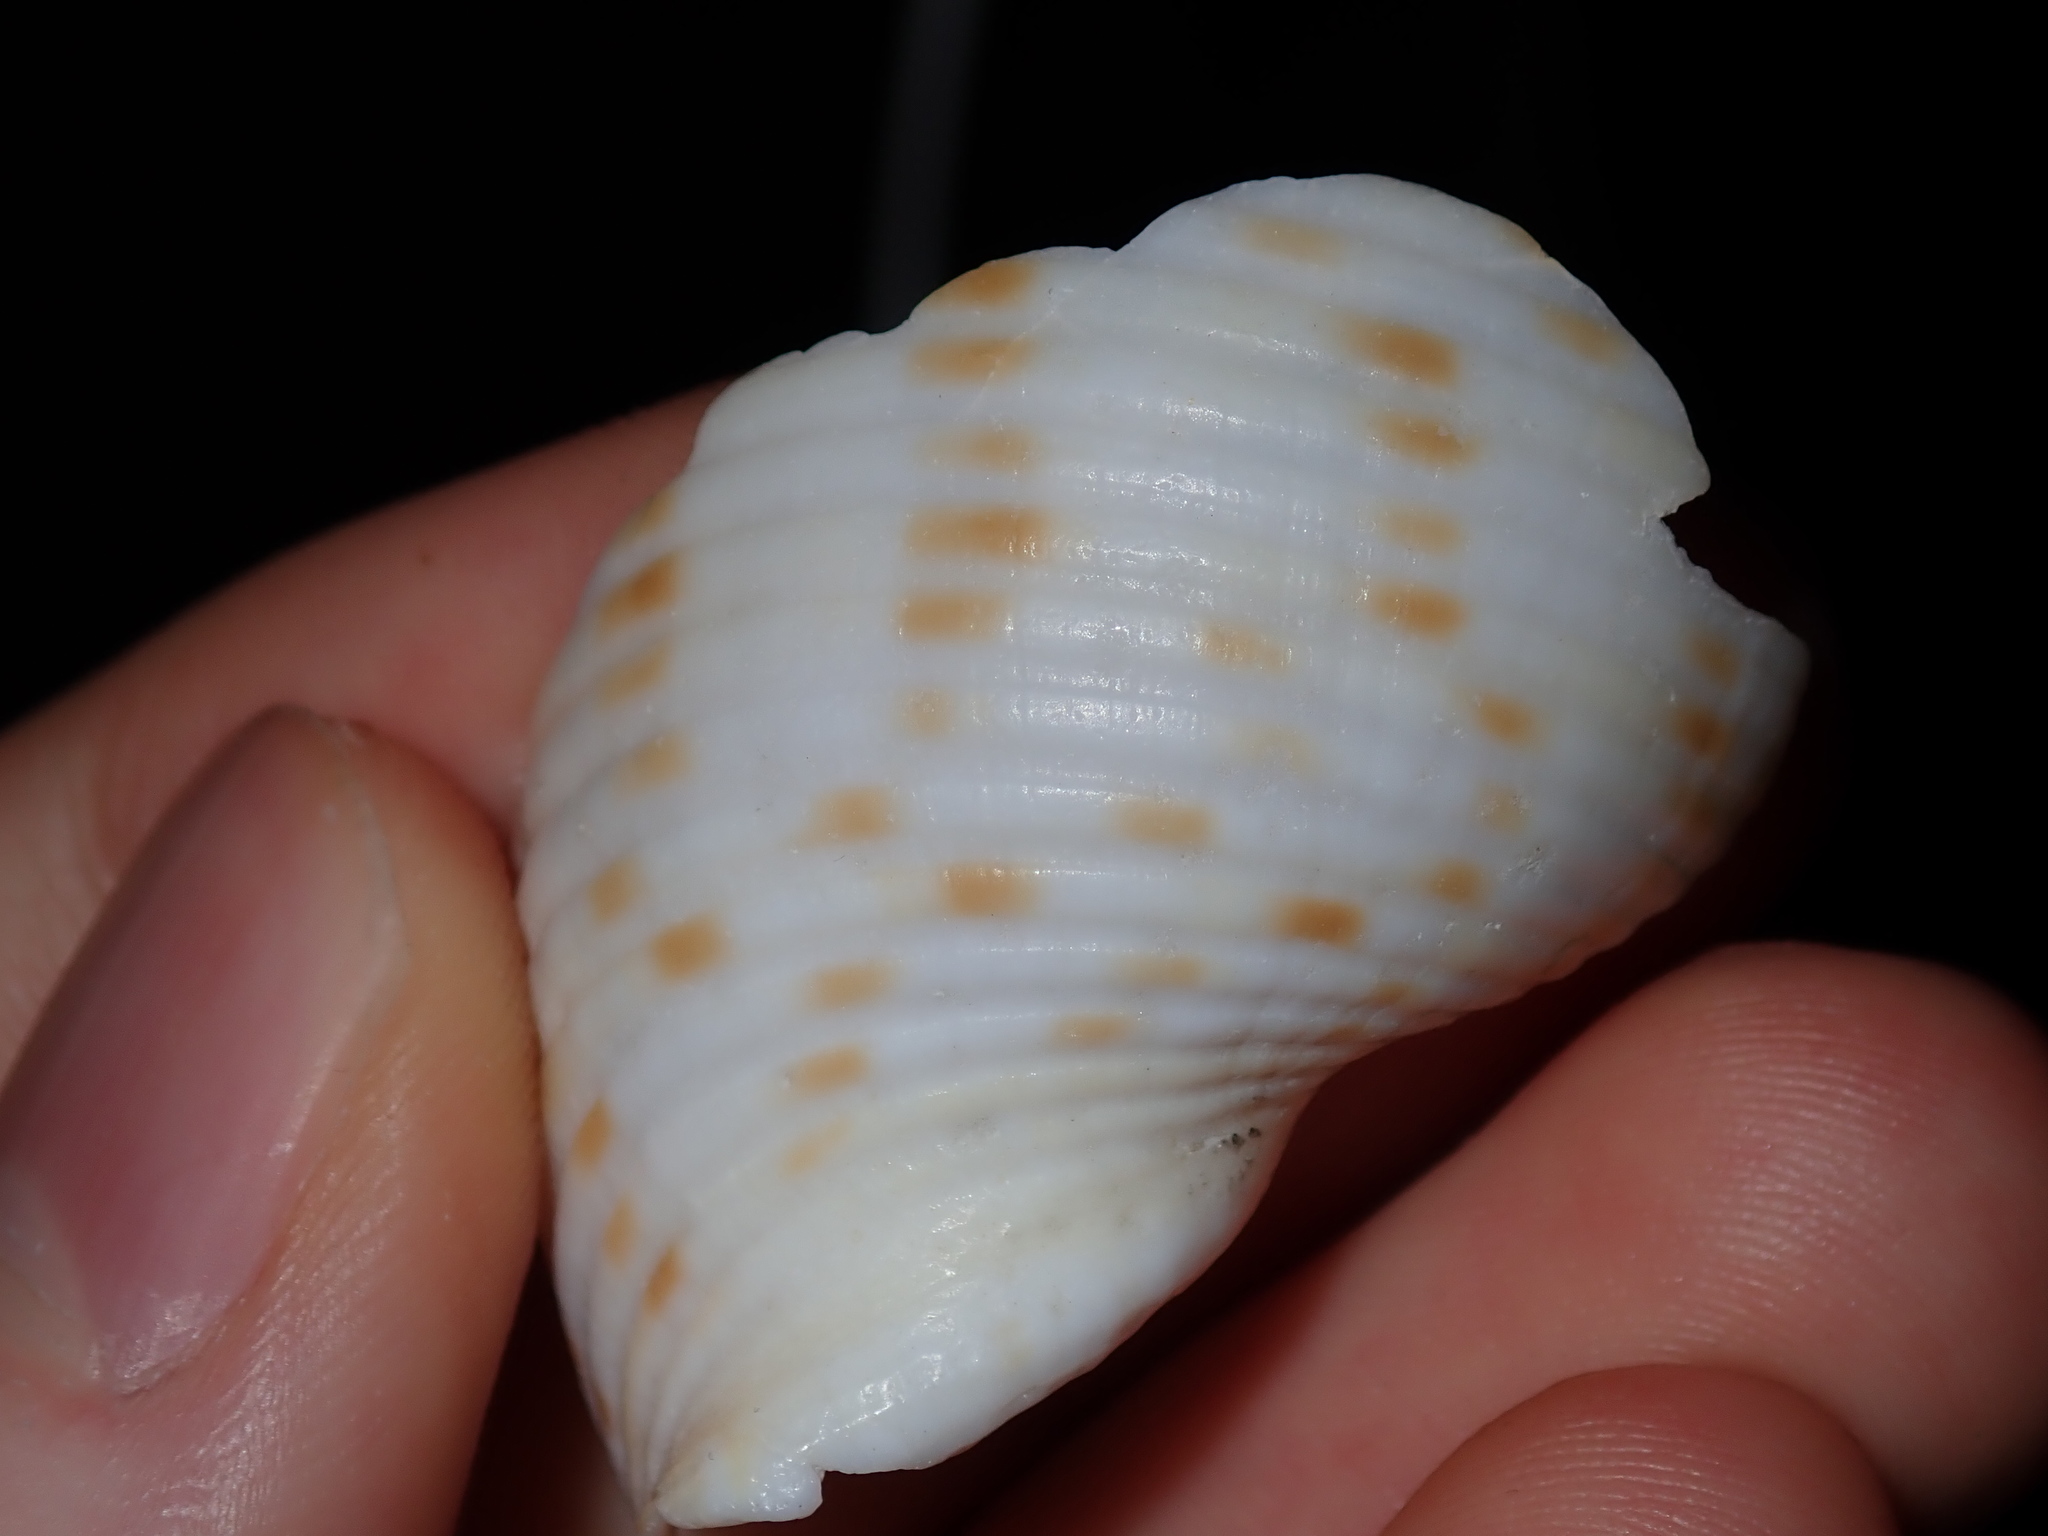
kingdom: Animalia
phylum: Mollusca
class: Gastropoda
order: Littorinimorpha
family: Tonnidae
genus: Tonna
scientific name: Tonna tankervillii
